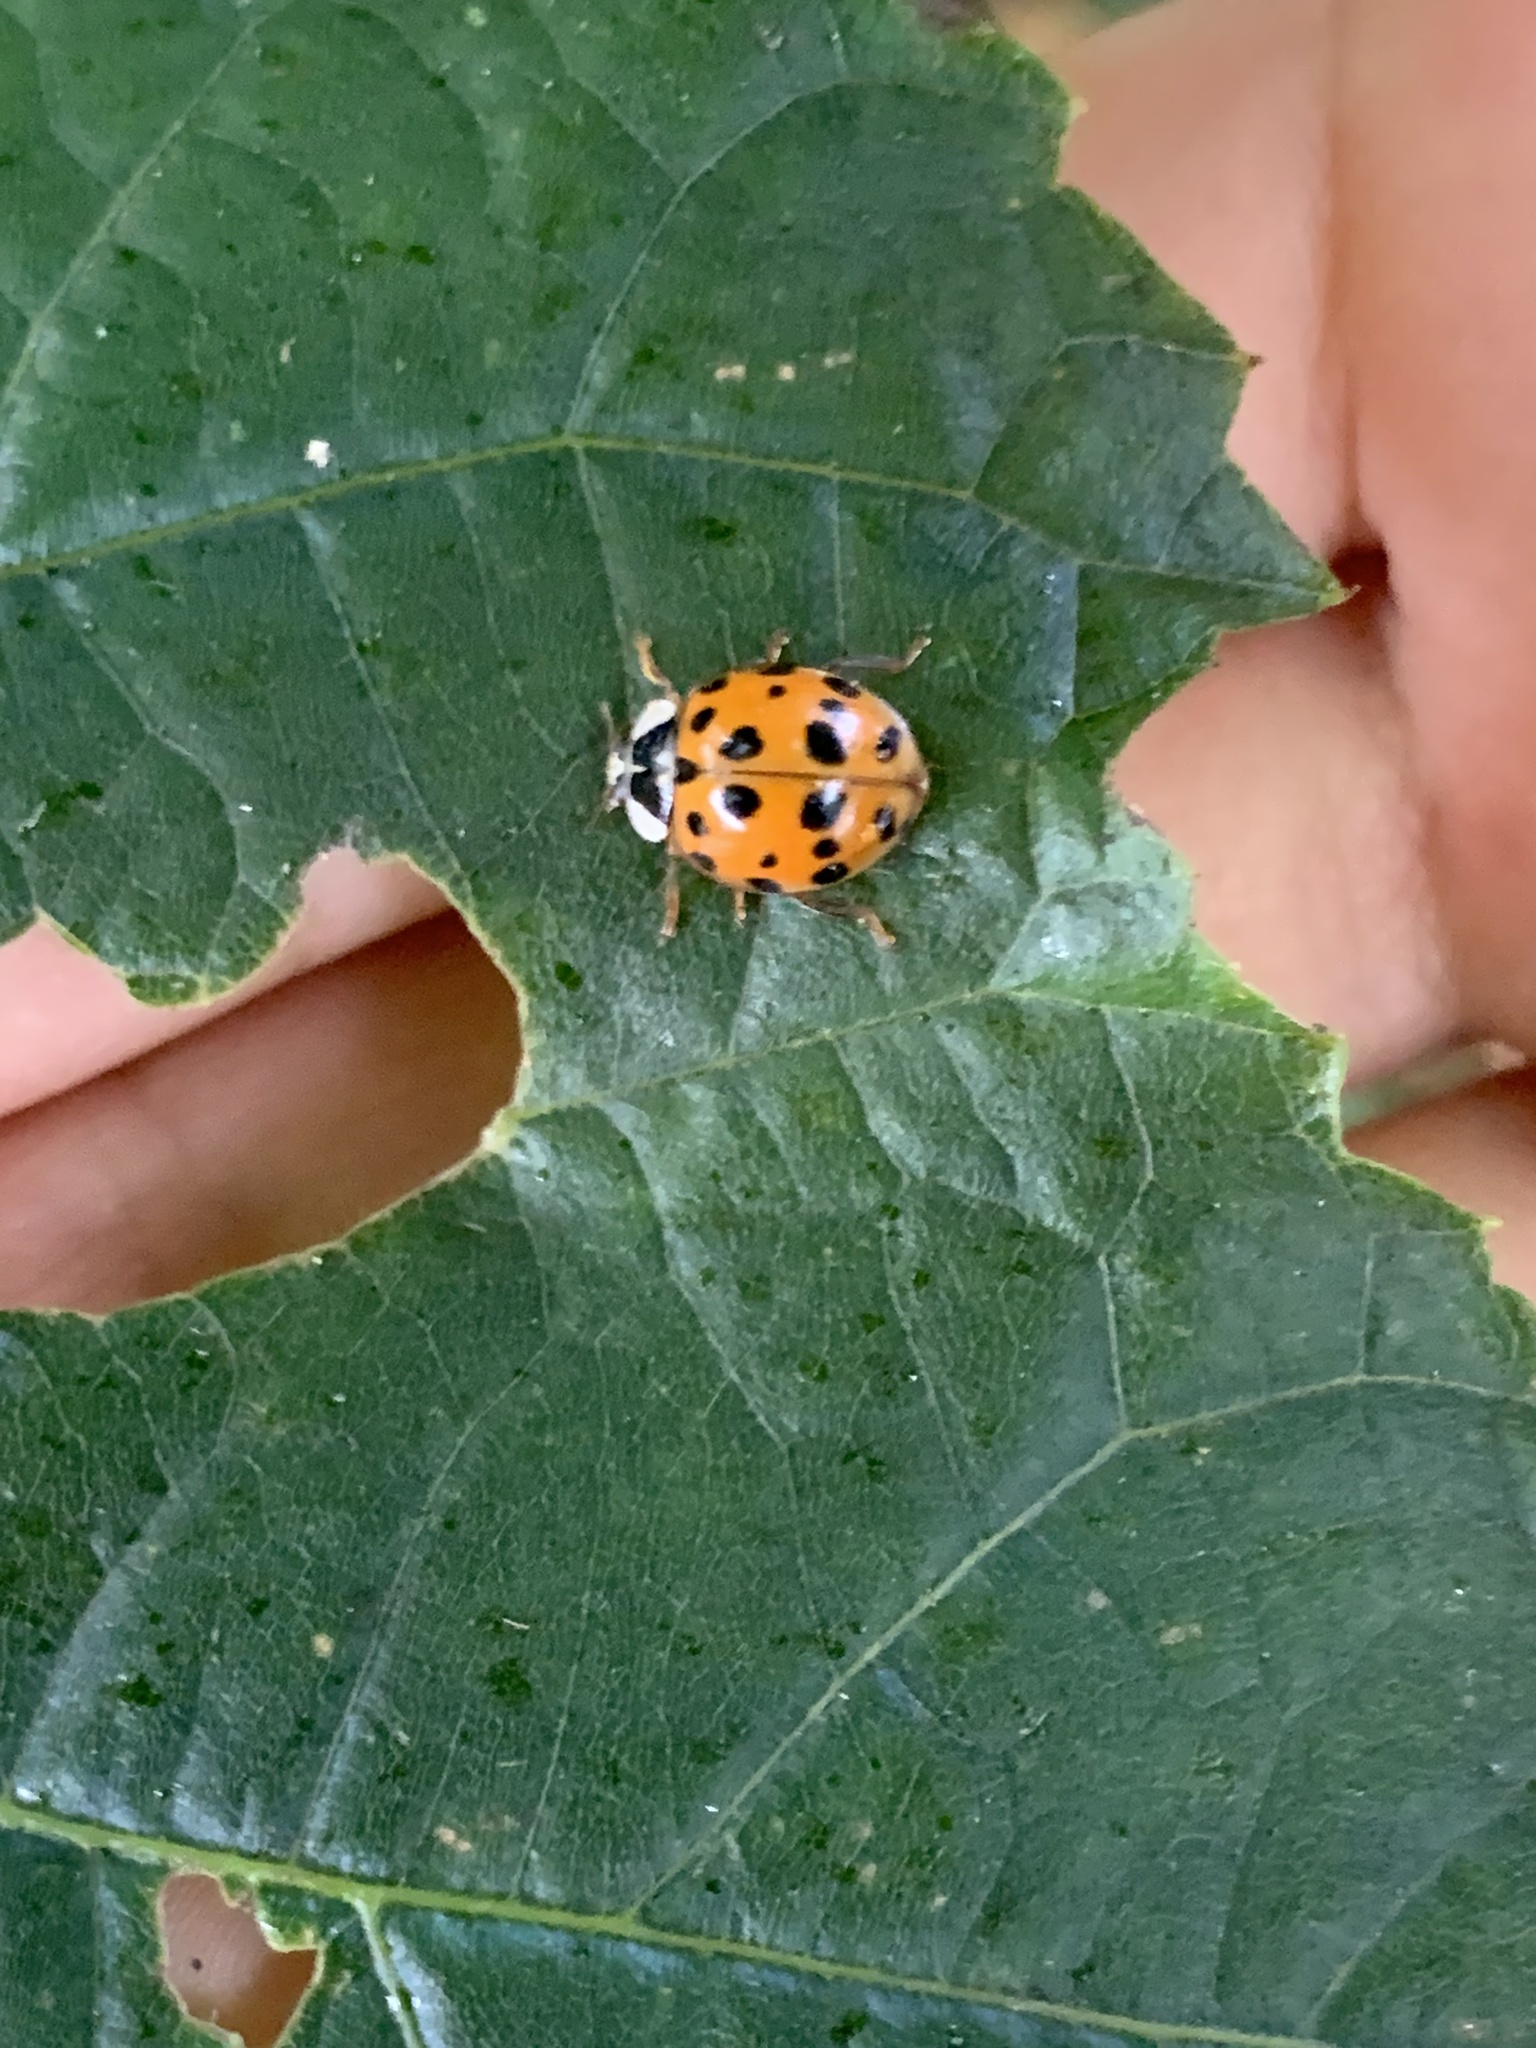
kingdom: Animalia
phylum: Arthropoda
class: Insecta
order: Coleoptera
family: Coccinellidae
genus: Harmonia
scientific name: Harmonia axyridis
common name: Harlequin ladybird
